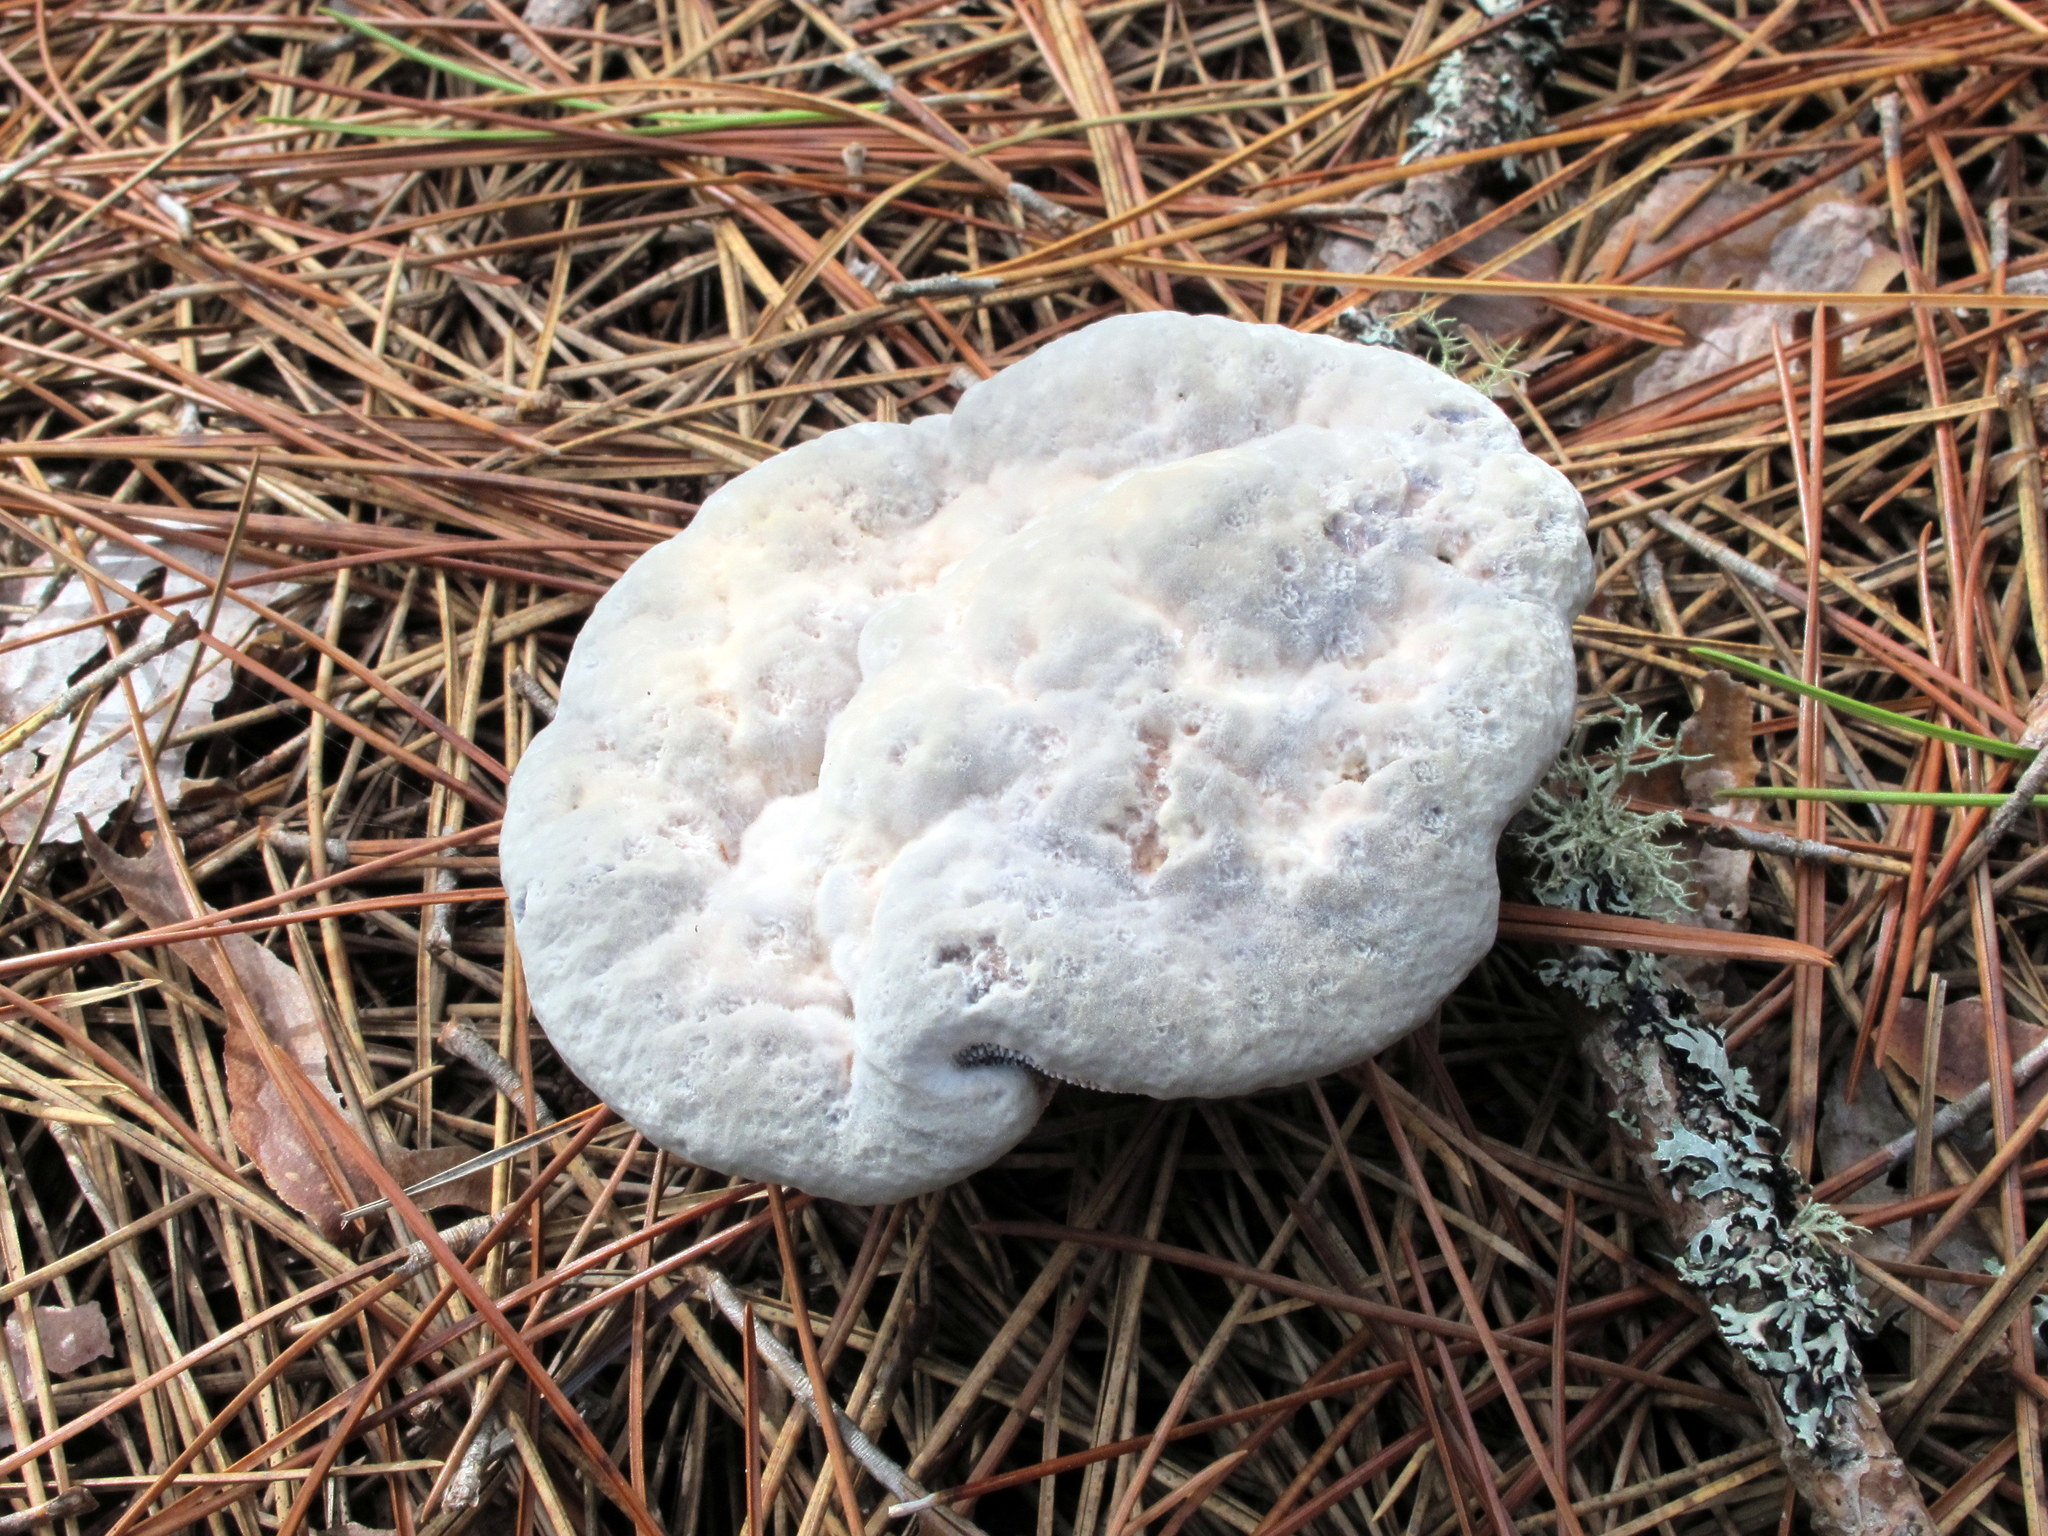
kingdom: Fungi
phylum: Basidiomycota
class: Agaricomycetes
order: Thelephorales
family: Bankeraceae
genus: Hydnellum
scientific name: Hydnellum caeruleum
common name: Blue corky spine fungus
